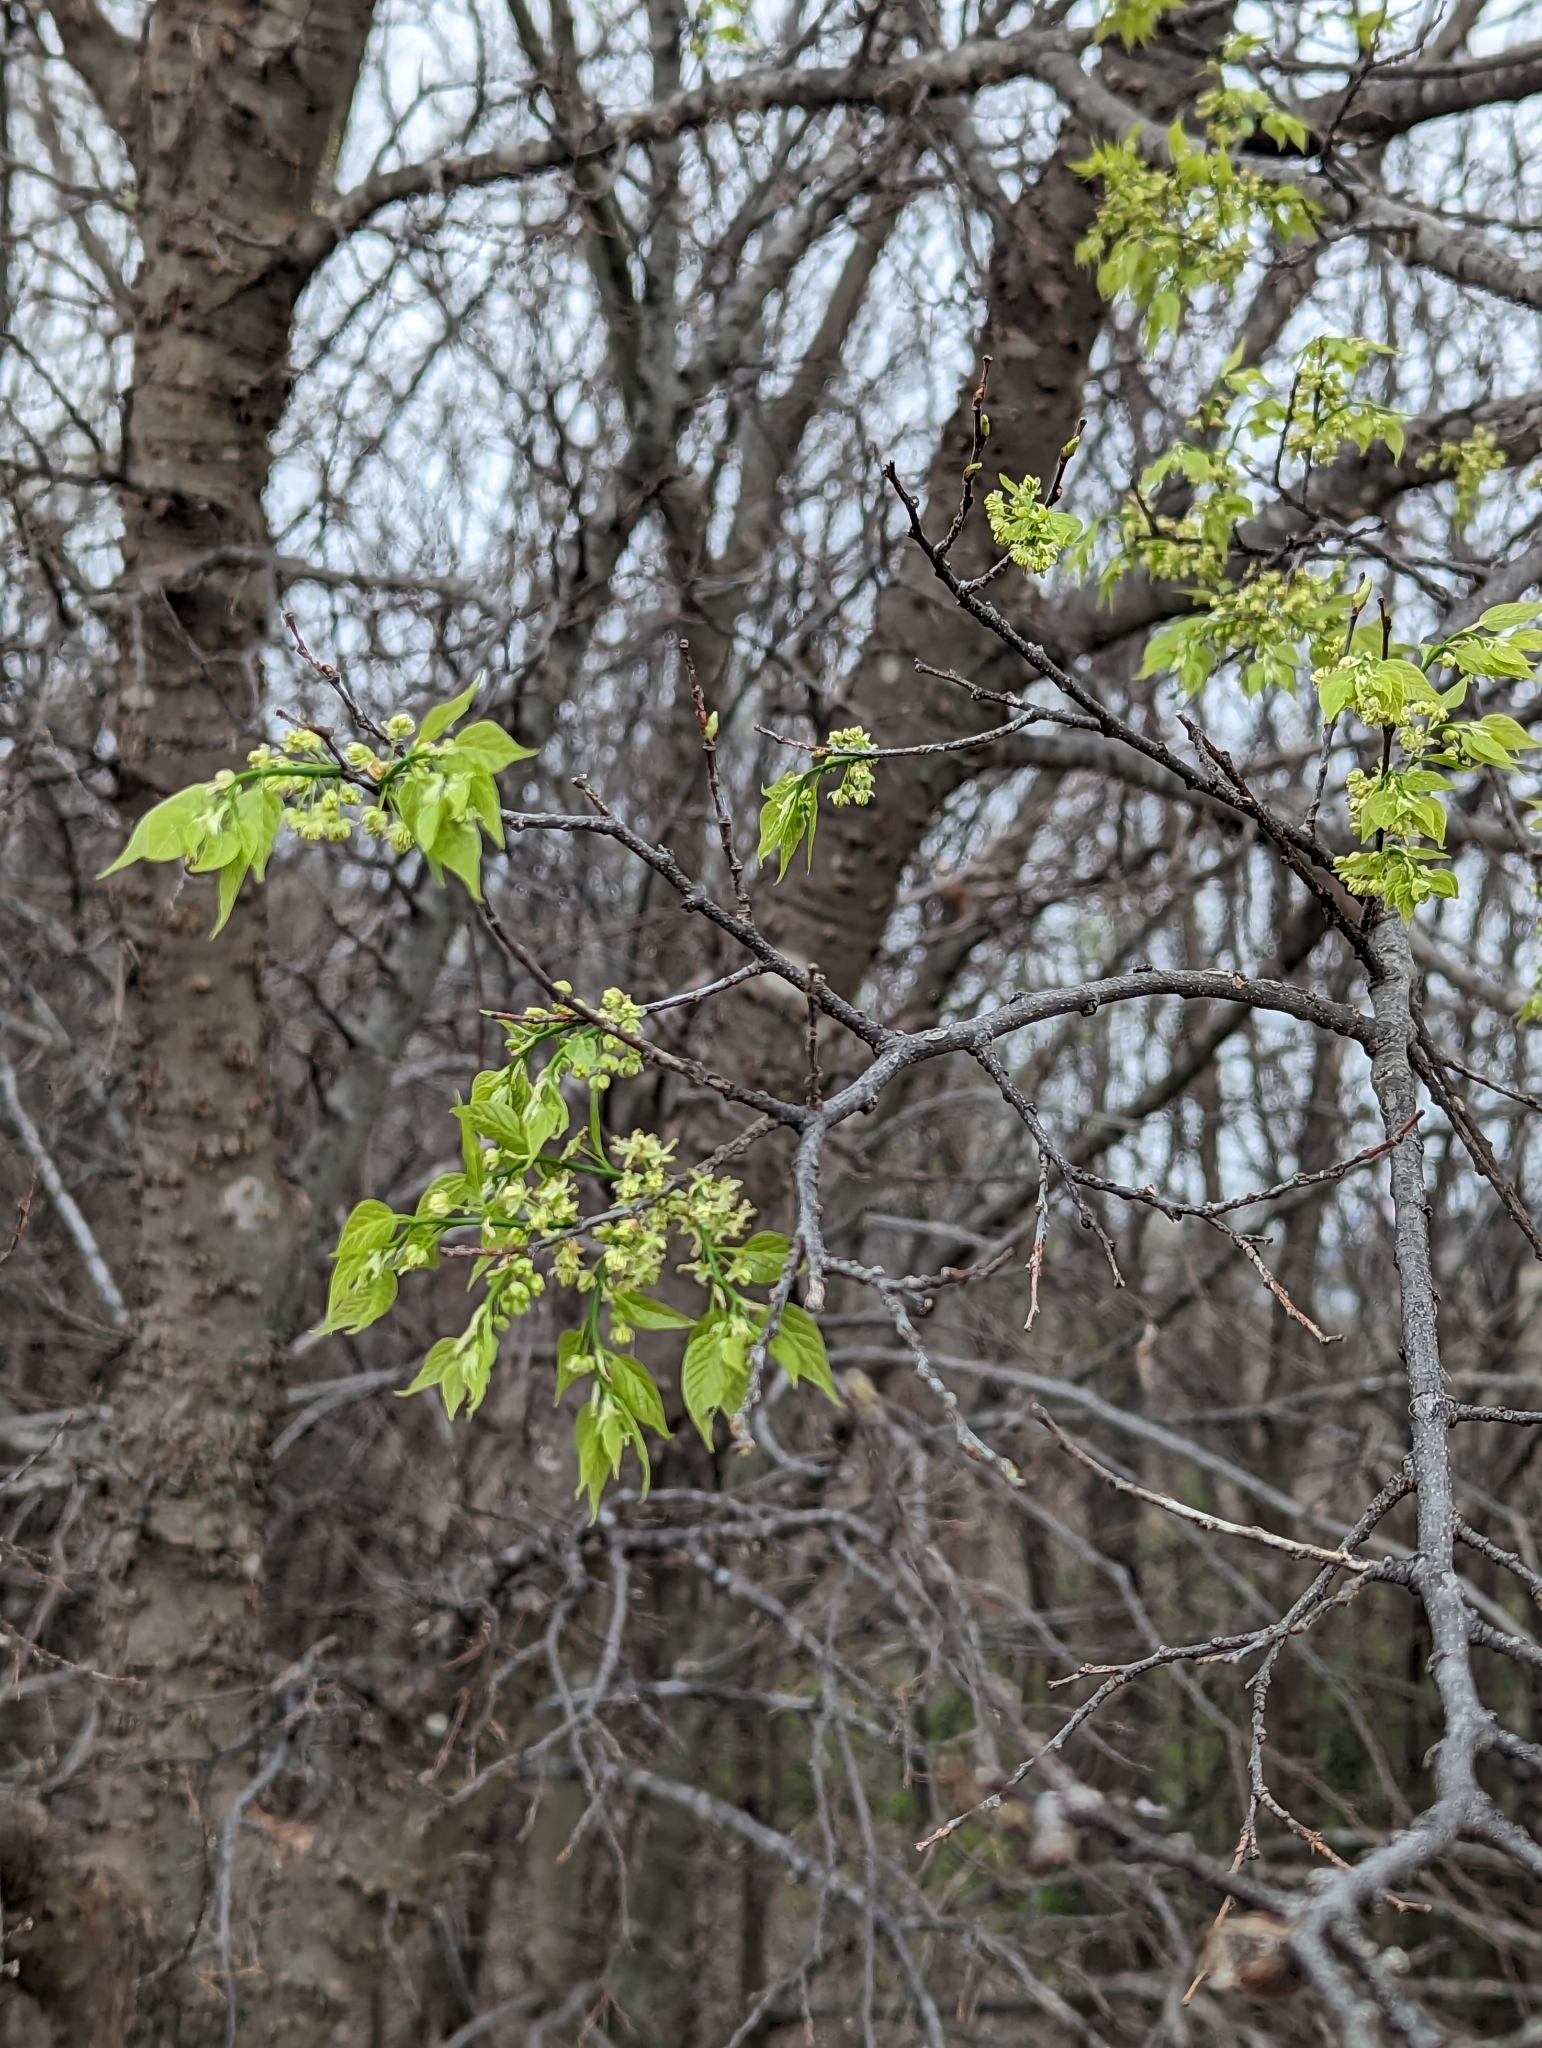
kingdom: Plantae
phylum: Tracheophyta
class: Magnoliopsida
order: Rosales
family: Cannabaceae
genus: Celtis
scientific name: Celtis laevigata
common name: Sugarberry
